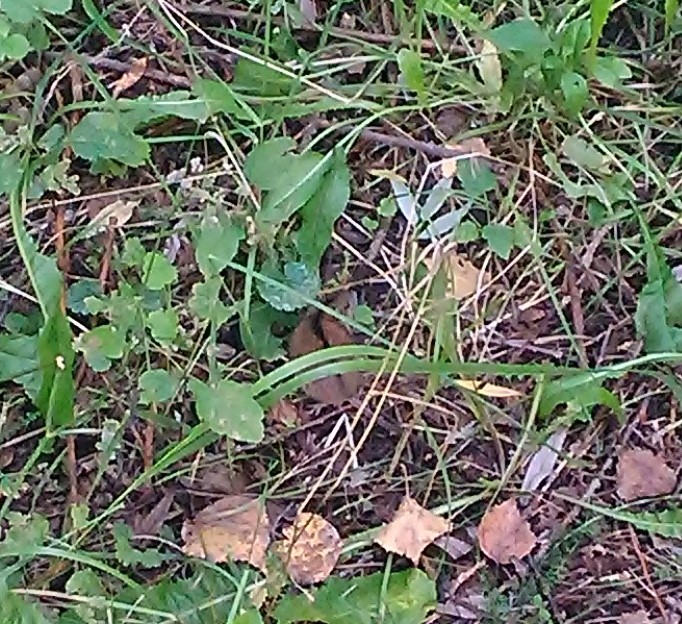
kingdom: Animalia
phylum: Chordata
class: Mammalia
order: Rodentia
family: Muridae
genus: Apodemus
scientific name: Apodemus agrarius
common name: Striped field mouse
